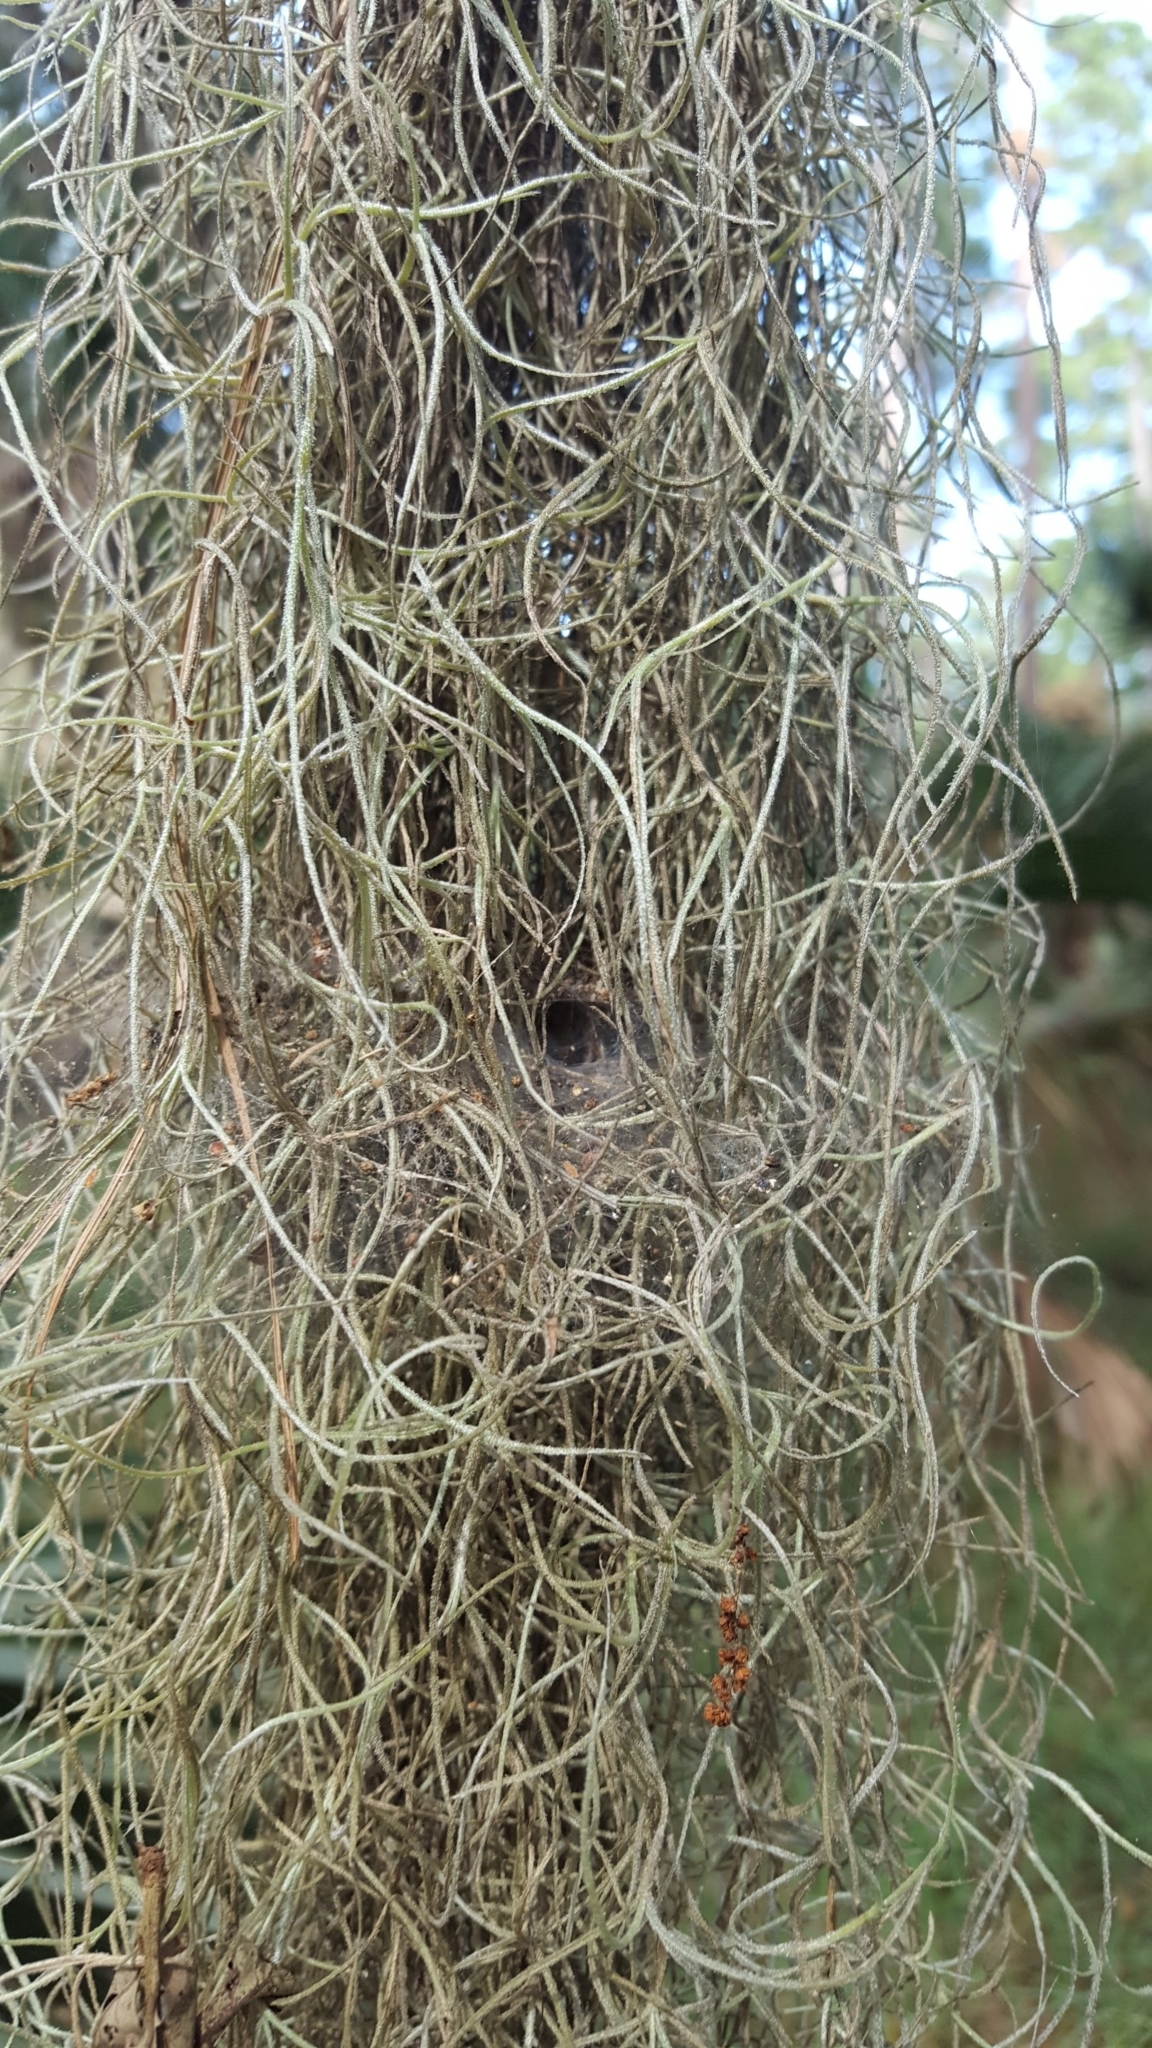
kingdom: Plantae
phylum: Tracheophyta
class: Liliopsida
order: Poales
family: Bromeliaceae
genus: Tillandsia
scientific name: Tillandsia usneoides
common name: Spanish moss
